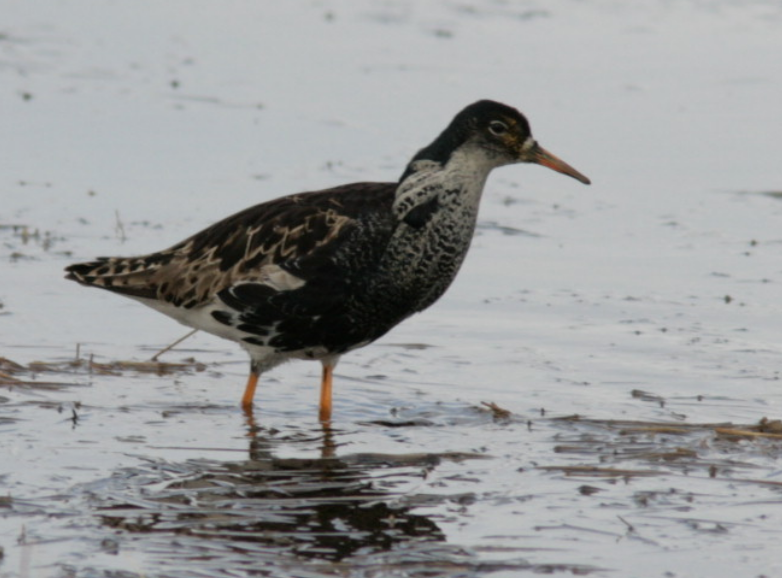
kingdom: Animalia
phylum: Chordata
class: Aves
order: Charadriiformes
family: Scolopacidae
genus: Calidris
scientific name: Calidris pugnax
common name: Ruff
